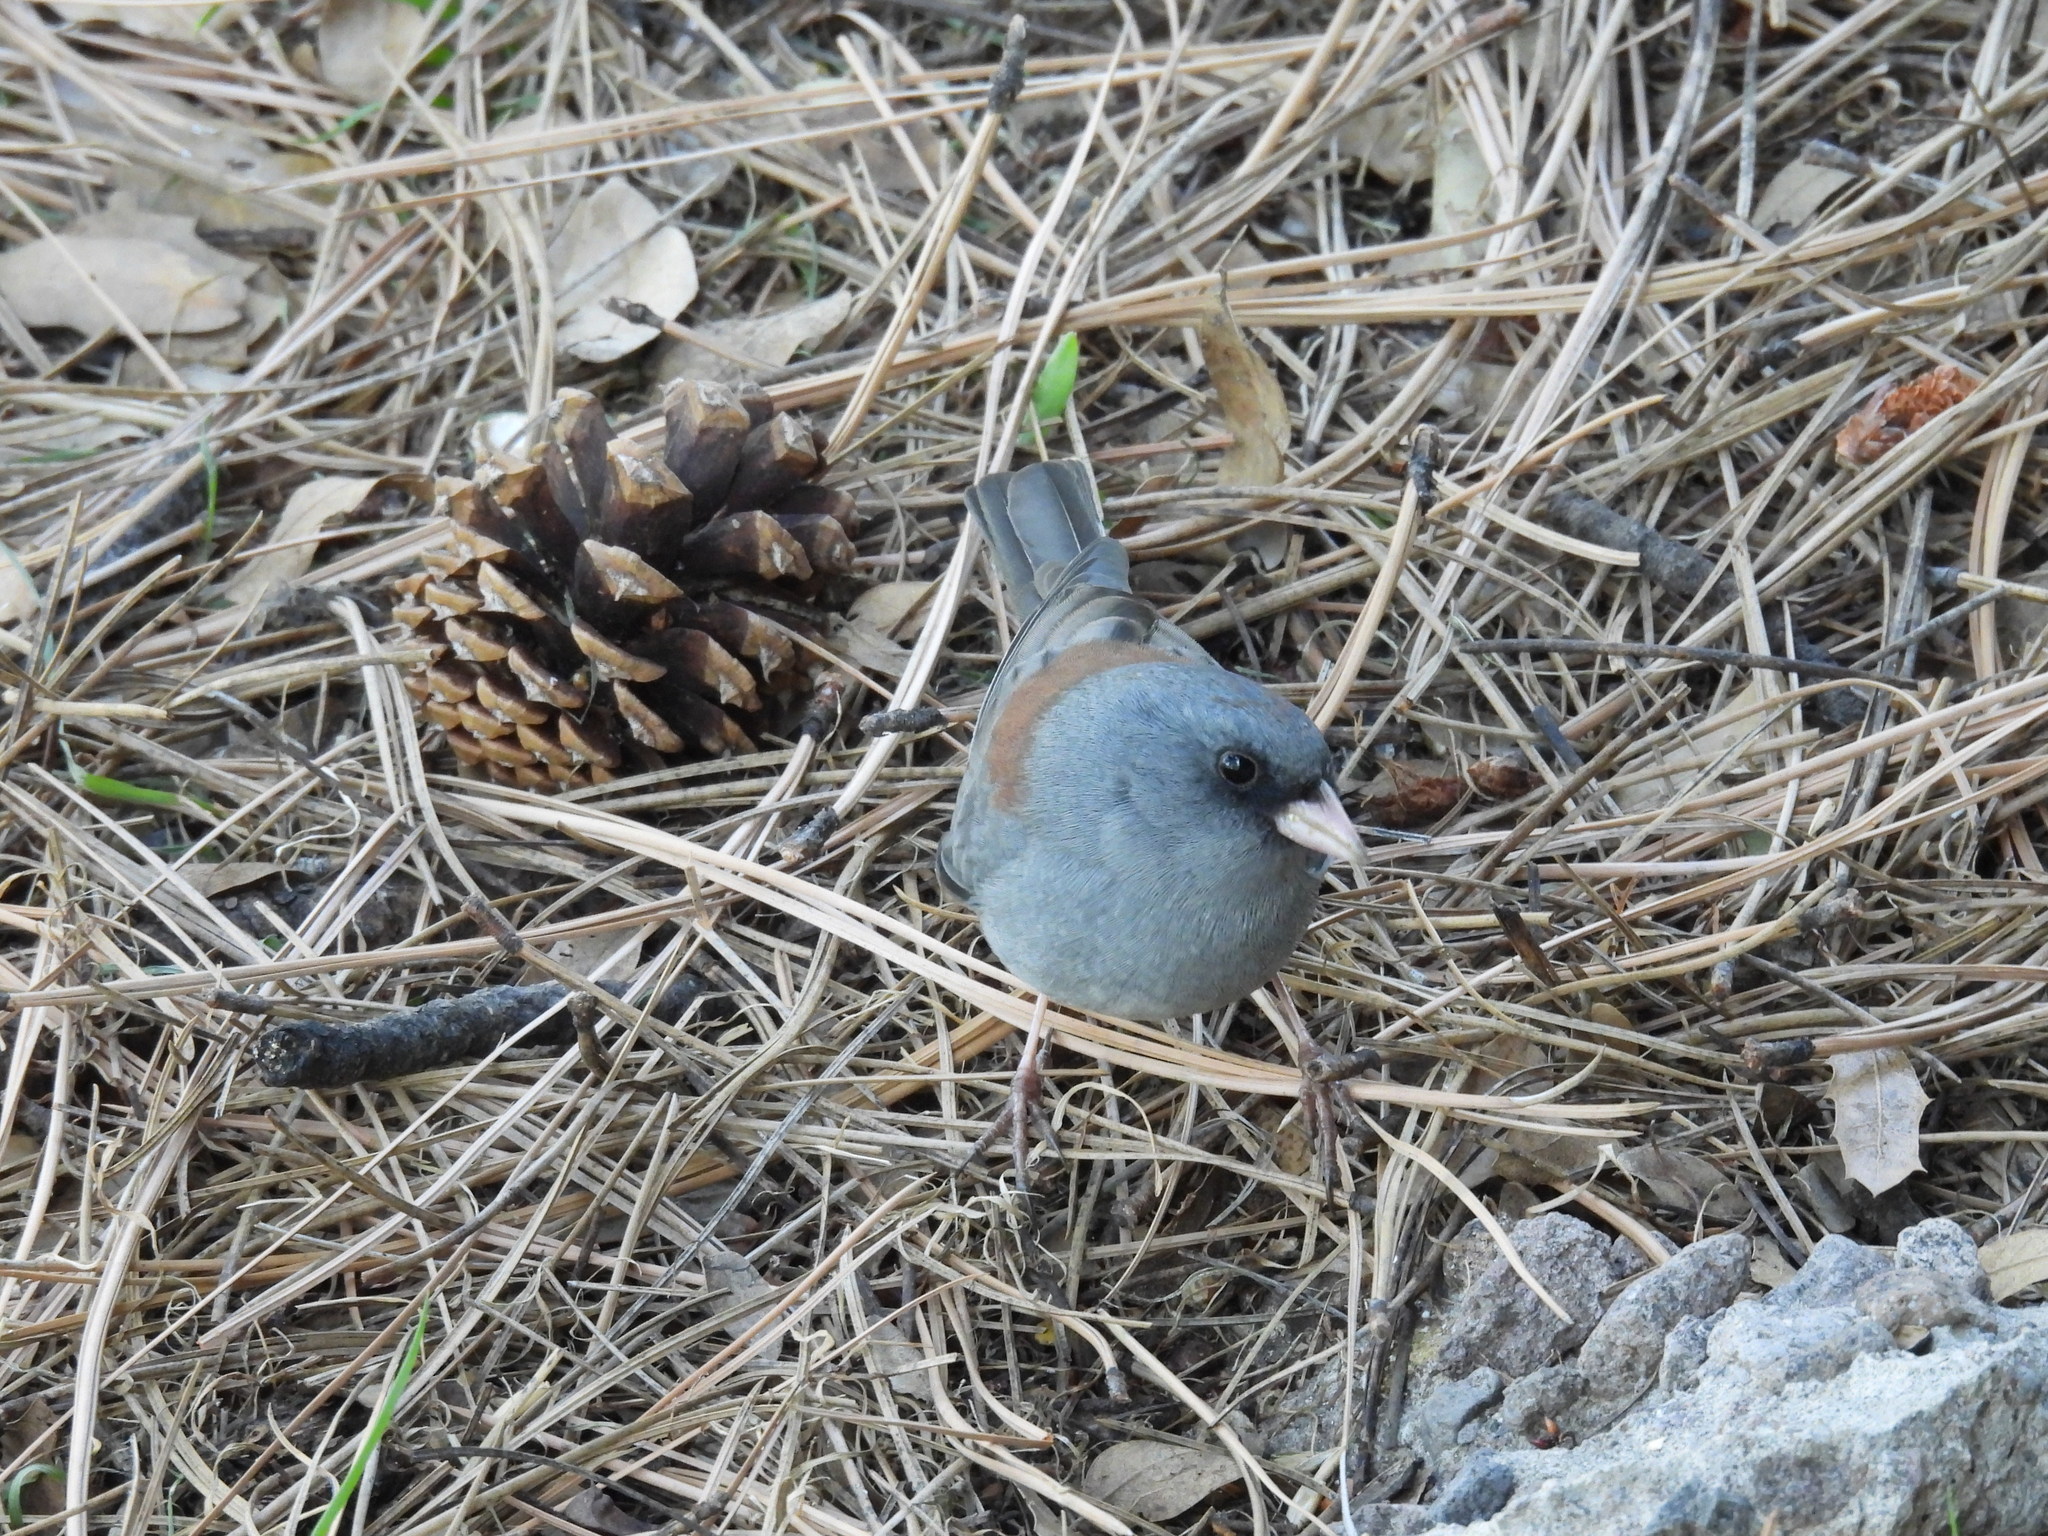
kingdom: Animalia
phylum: Chordata
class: Aves
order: Passeriformes
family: Passerellidae
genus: Junco
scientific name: Junco hyemalis
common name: Dark-eyed junco
